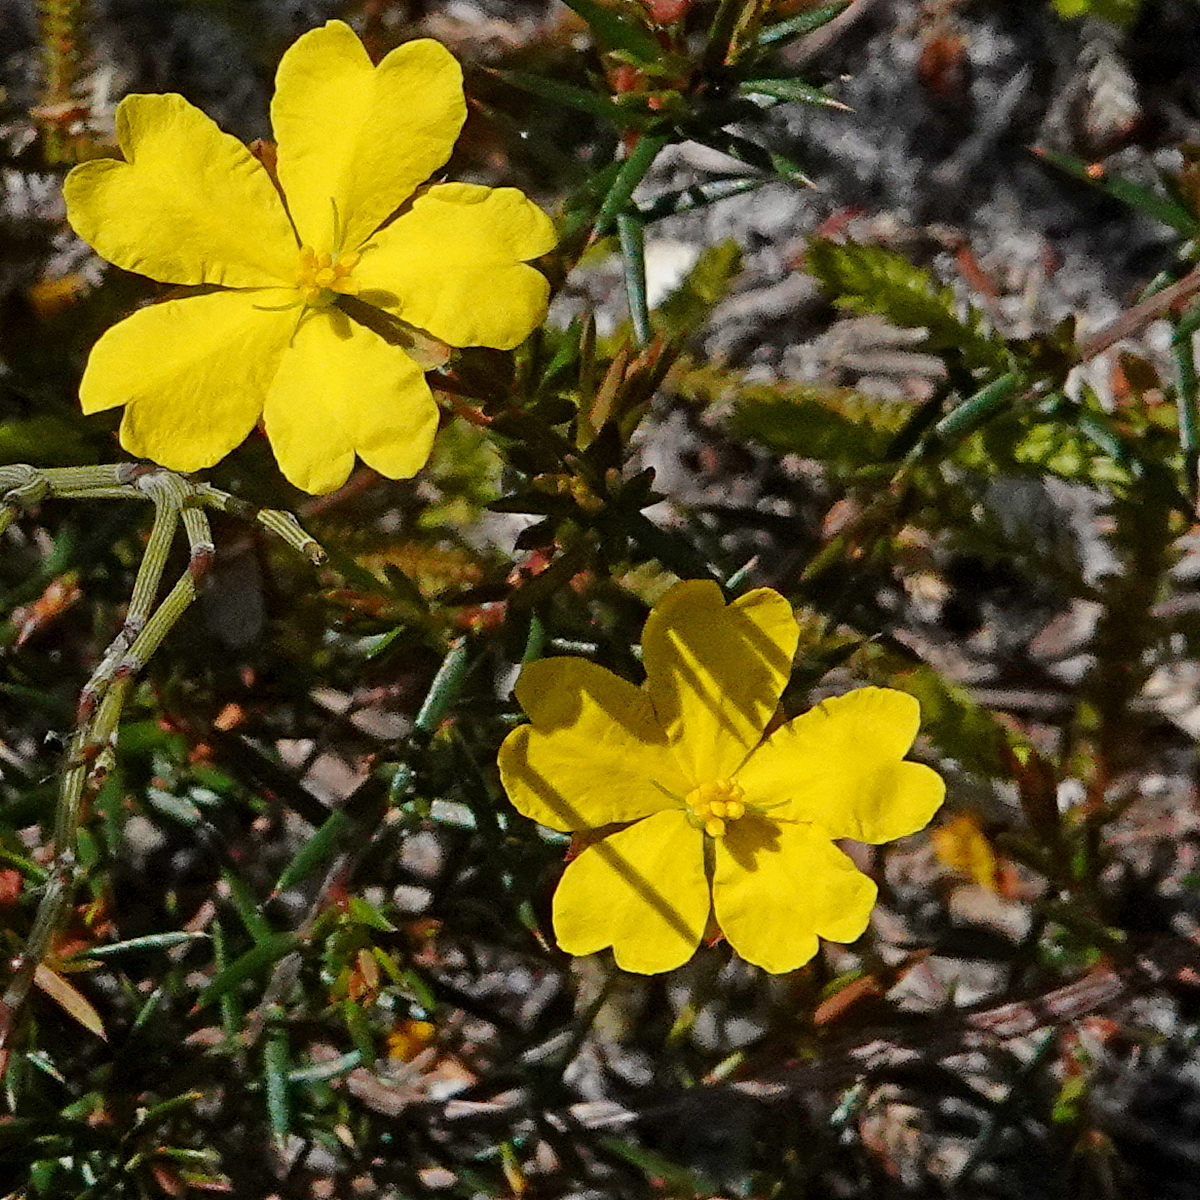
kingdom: Plantae
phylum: Tracheophyta
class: Magnoliopsida
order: Dilleniales
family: Dilleniaceae
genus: Hibbertia
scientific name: Hibbertia acicularis
